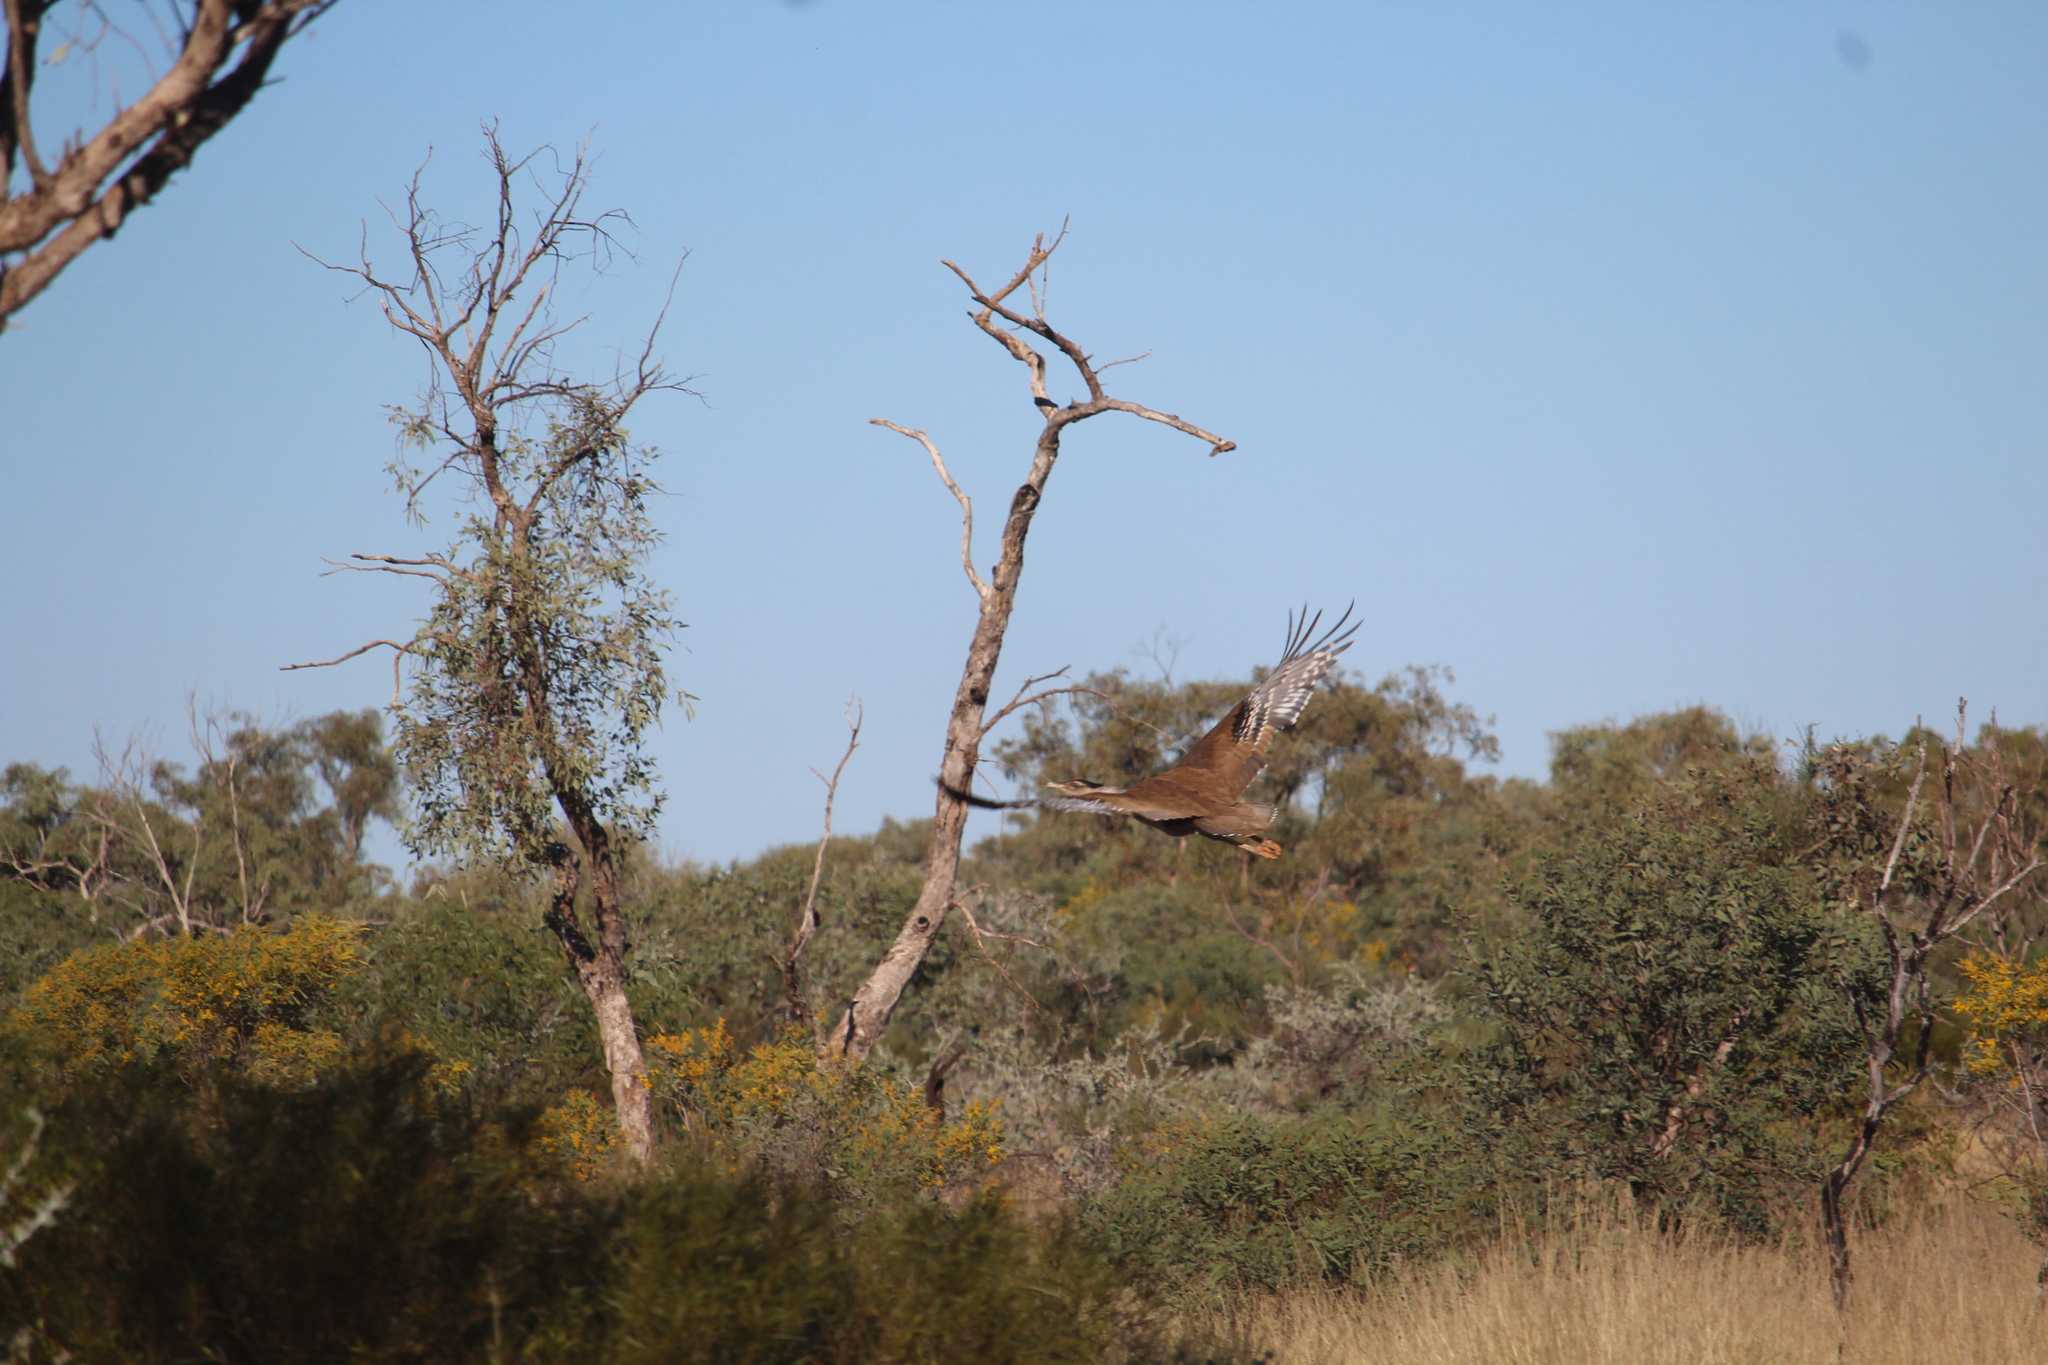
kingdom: Animalia
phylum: Chordata
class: Aves
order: Otidiformes
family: Otididae
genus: Ardeotis
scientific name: Ardeotis australis
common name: Australian bustard
